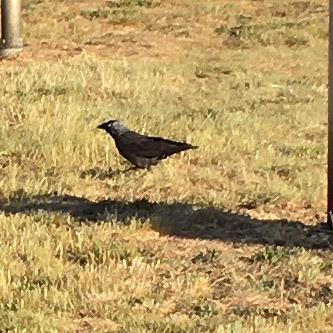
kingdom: Animalia
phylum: Chordata
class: Aves
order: Passeriformes
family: Corvidae
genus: Coloeus
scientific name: Coloeus monedula
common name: Western jackdaw
